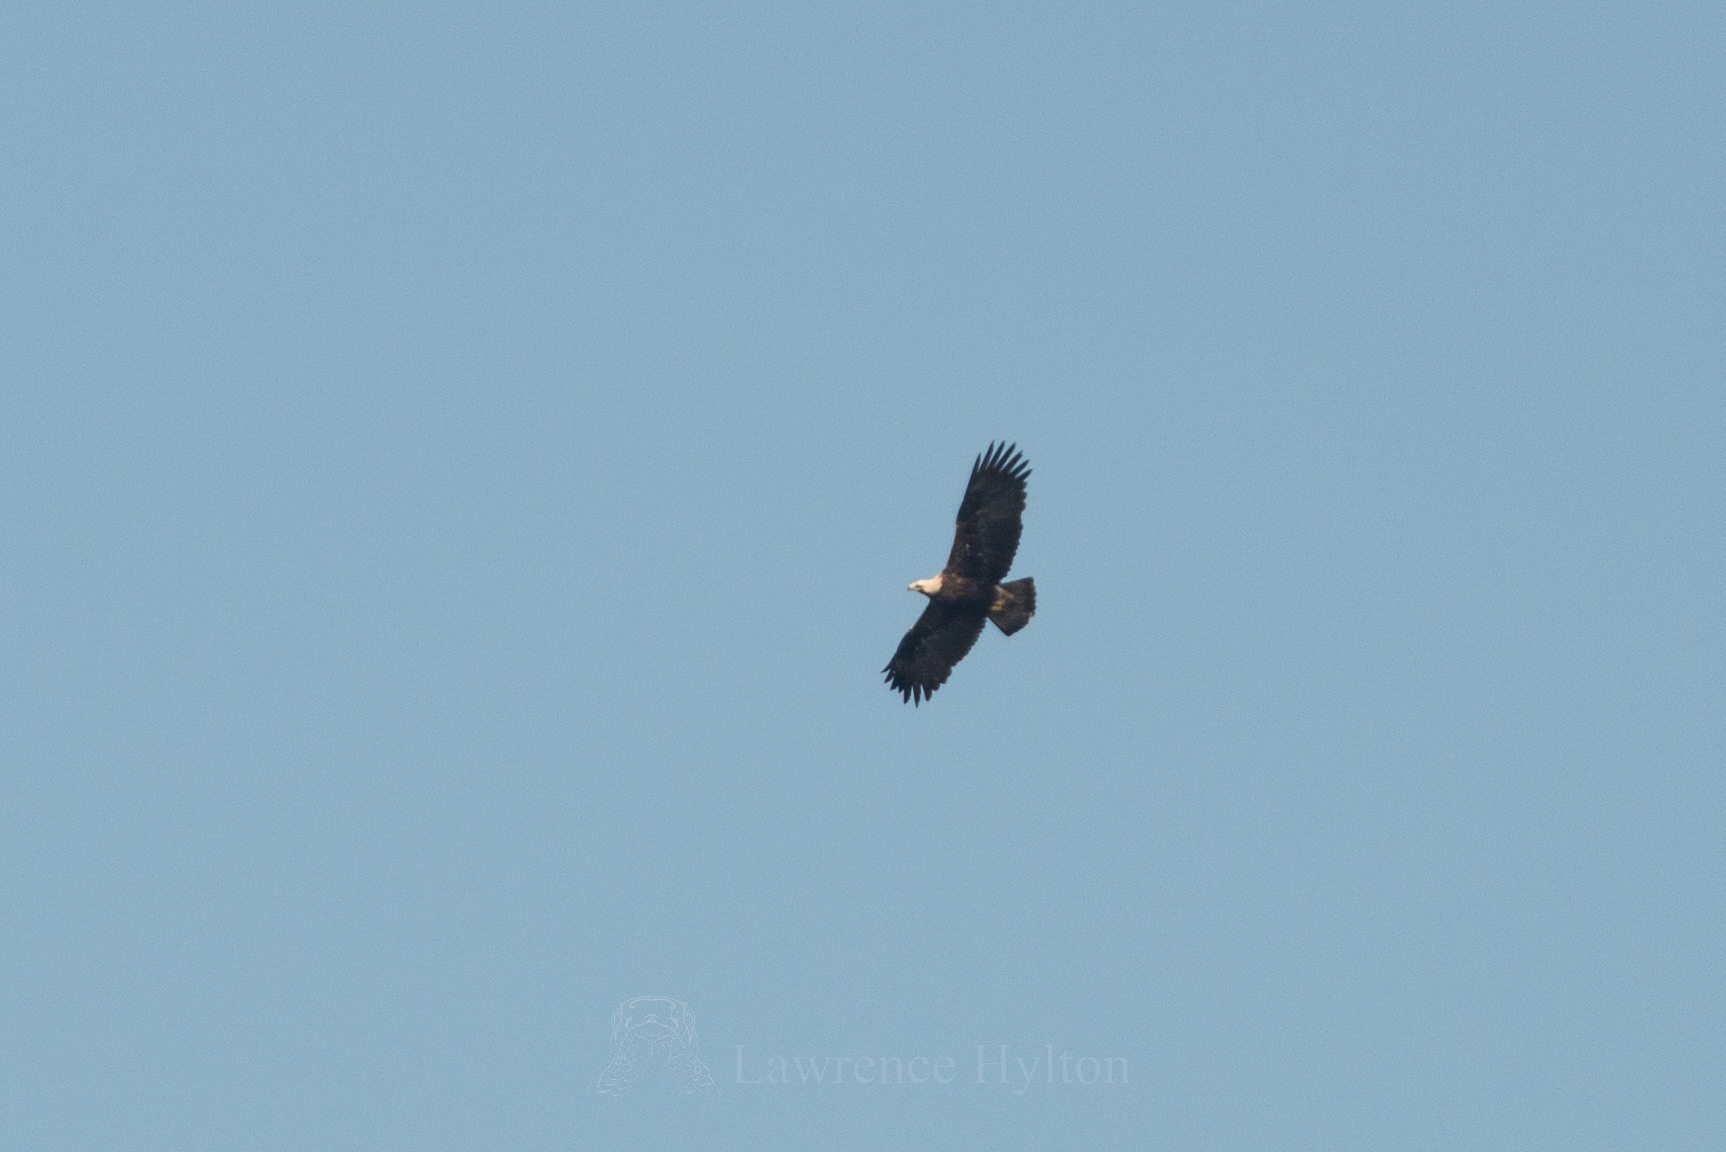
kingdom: Animalia
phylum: Chordata
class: Aves
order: Accipitriformes
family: Accipitridae
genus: Aquila
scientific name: Aquila heliaca
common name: Eastern imperial eagle
